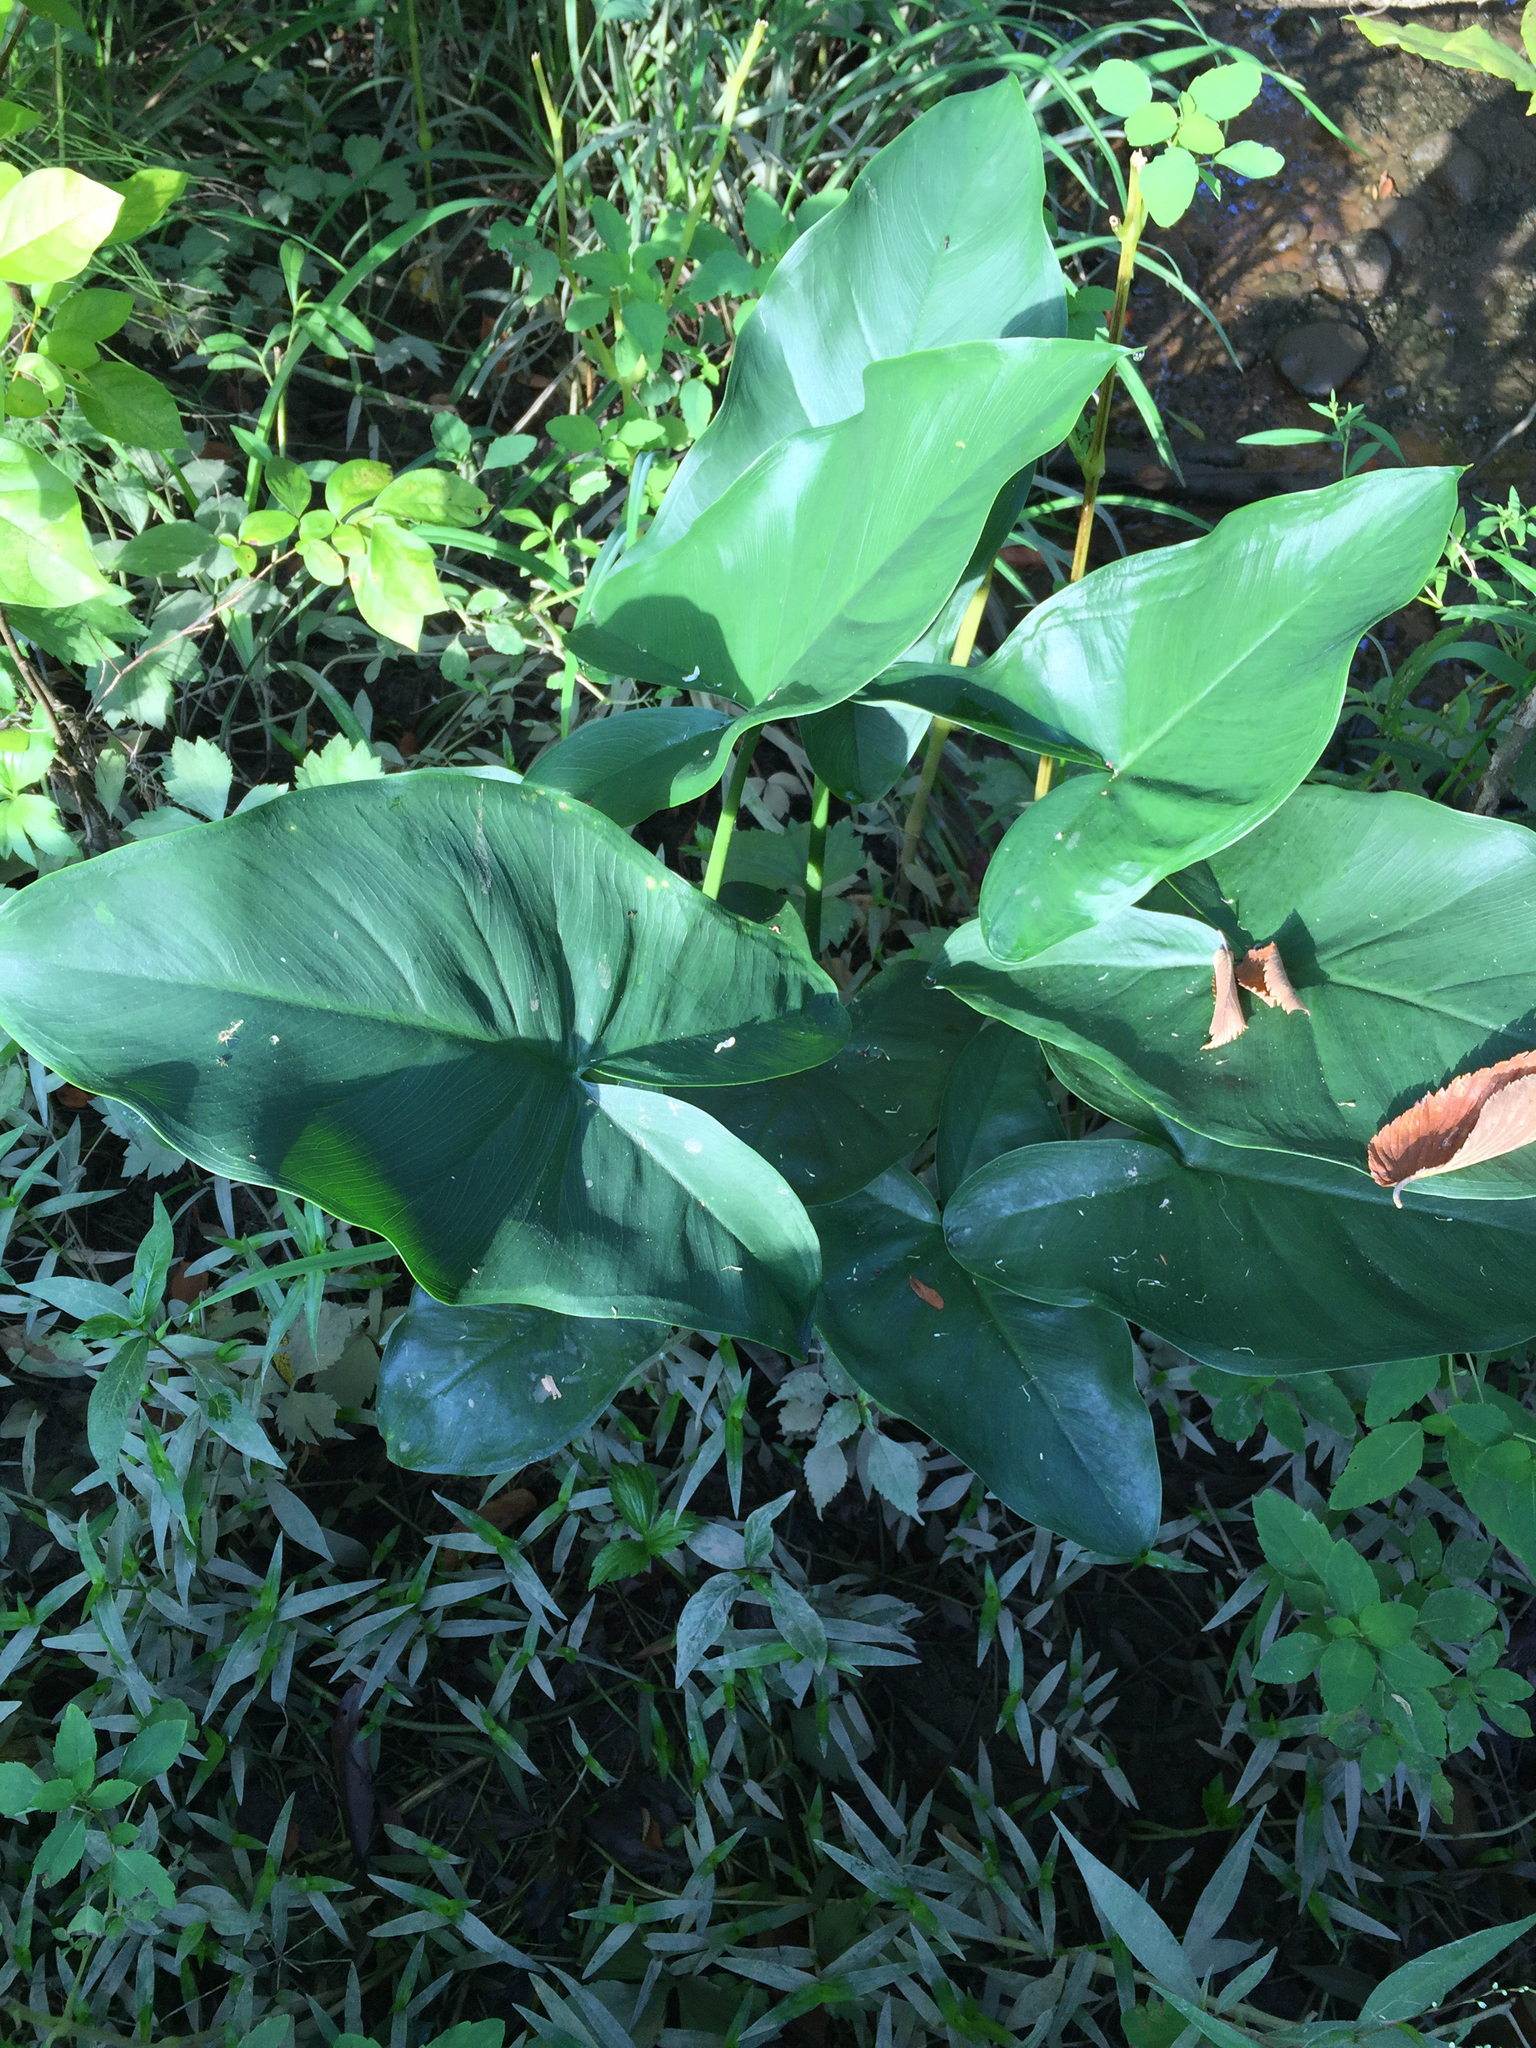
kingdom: Plantae
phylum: Tracheophyta
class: Liliopsida
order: Alismatales
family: Araceae
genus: Peltandra
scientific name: Peltandra virginica
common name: Arrow arum
